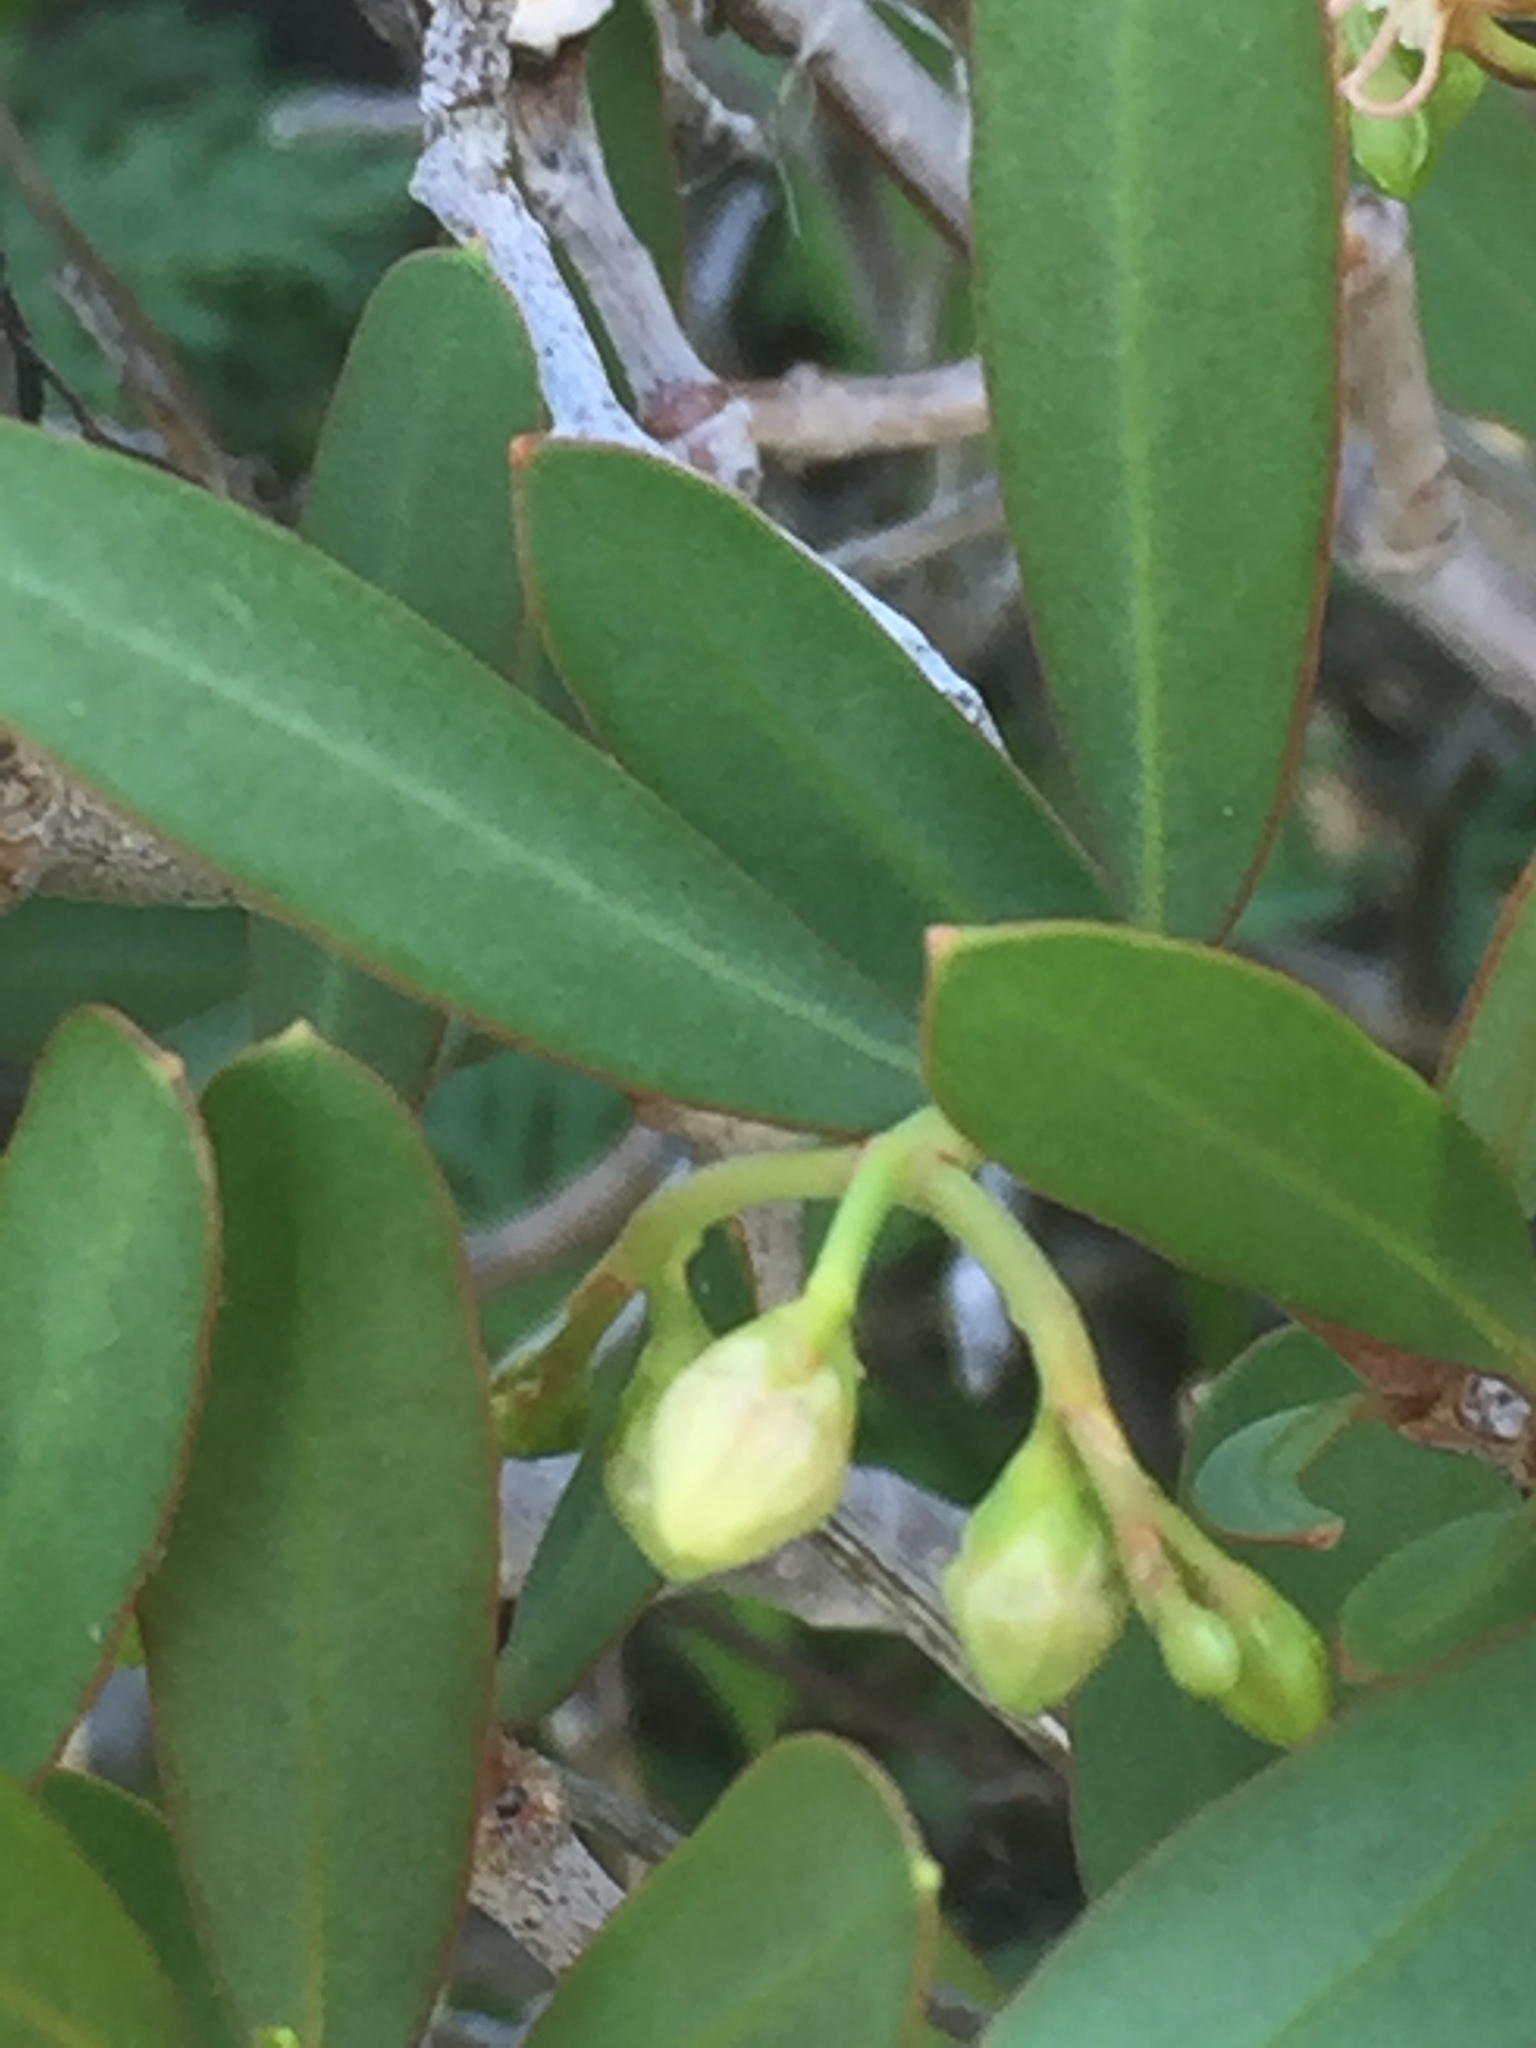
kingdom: Plantae
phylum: Tracheophyta
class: Magnoliopsida
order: Gentianales
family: Apocynaceae
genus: Periploca
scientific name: Periploca laevigata
